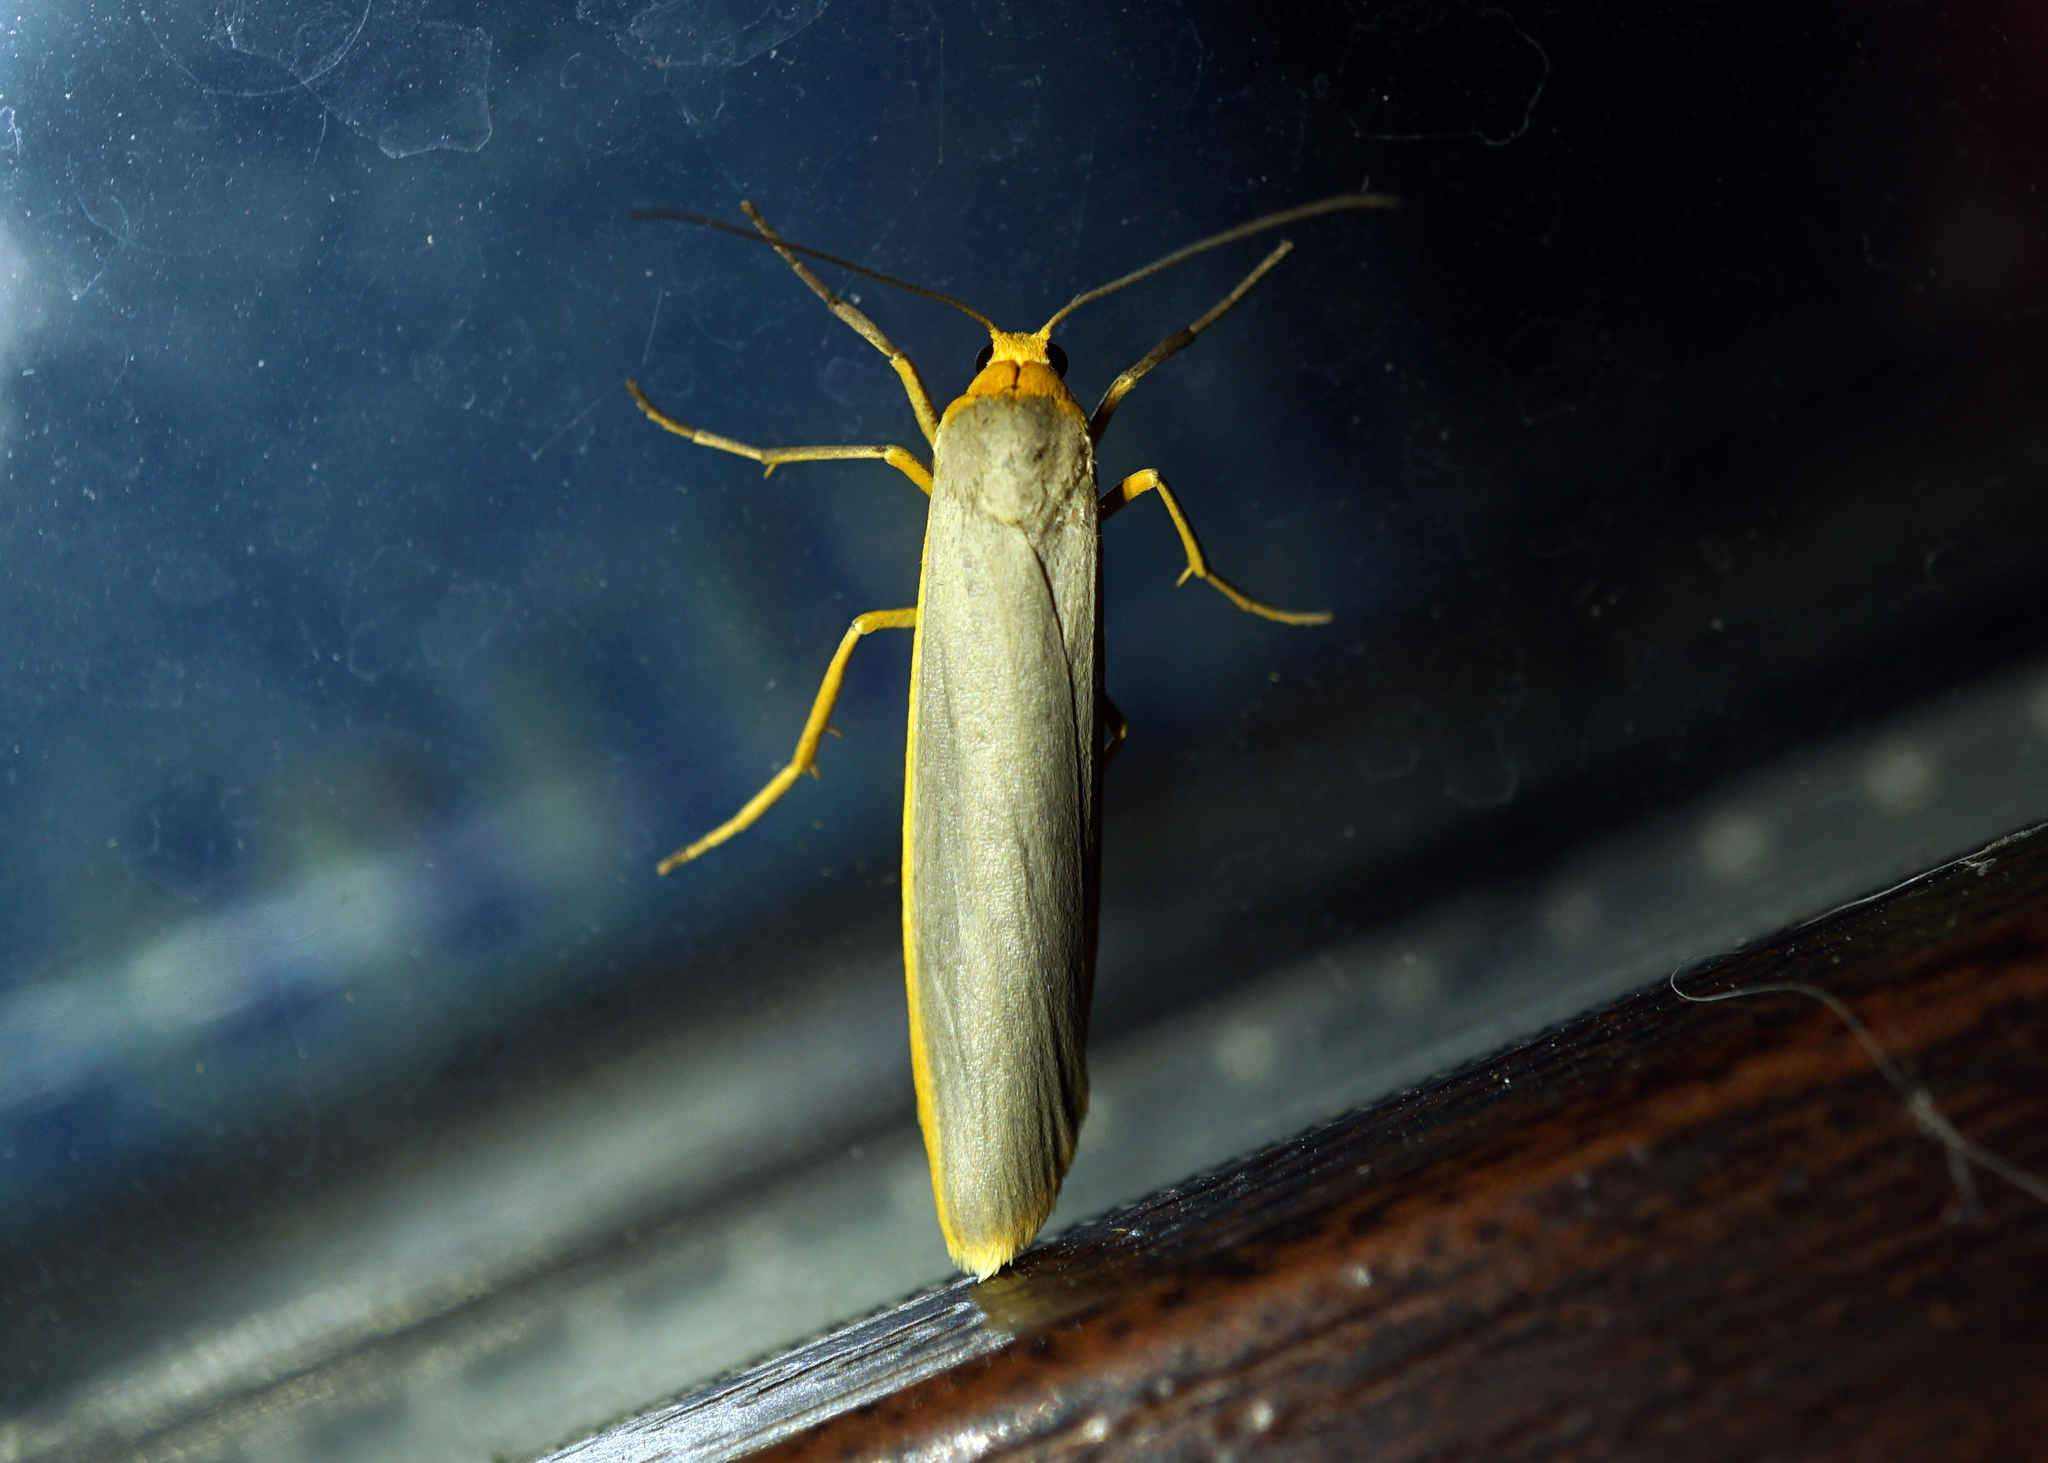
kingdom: Animalia
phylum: Arthropoda
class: Insecta
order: Lepidoptera
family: Erebidae
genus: Manulea
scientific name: Manulea complana
